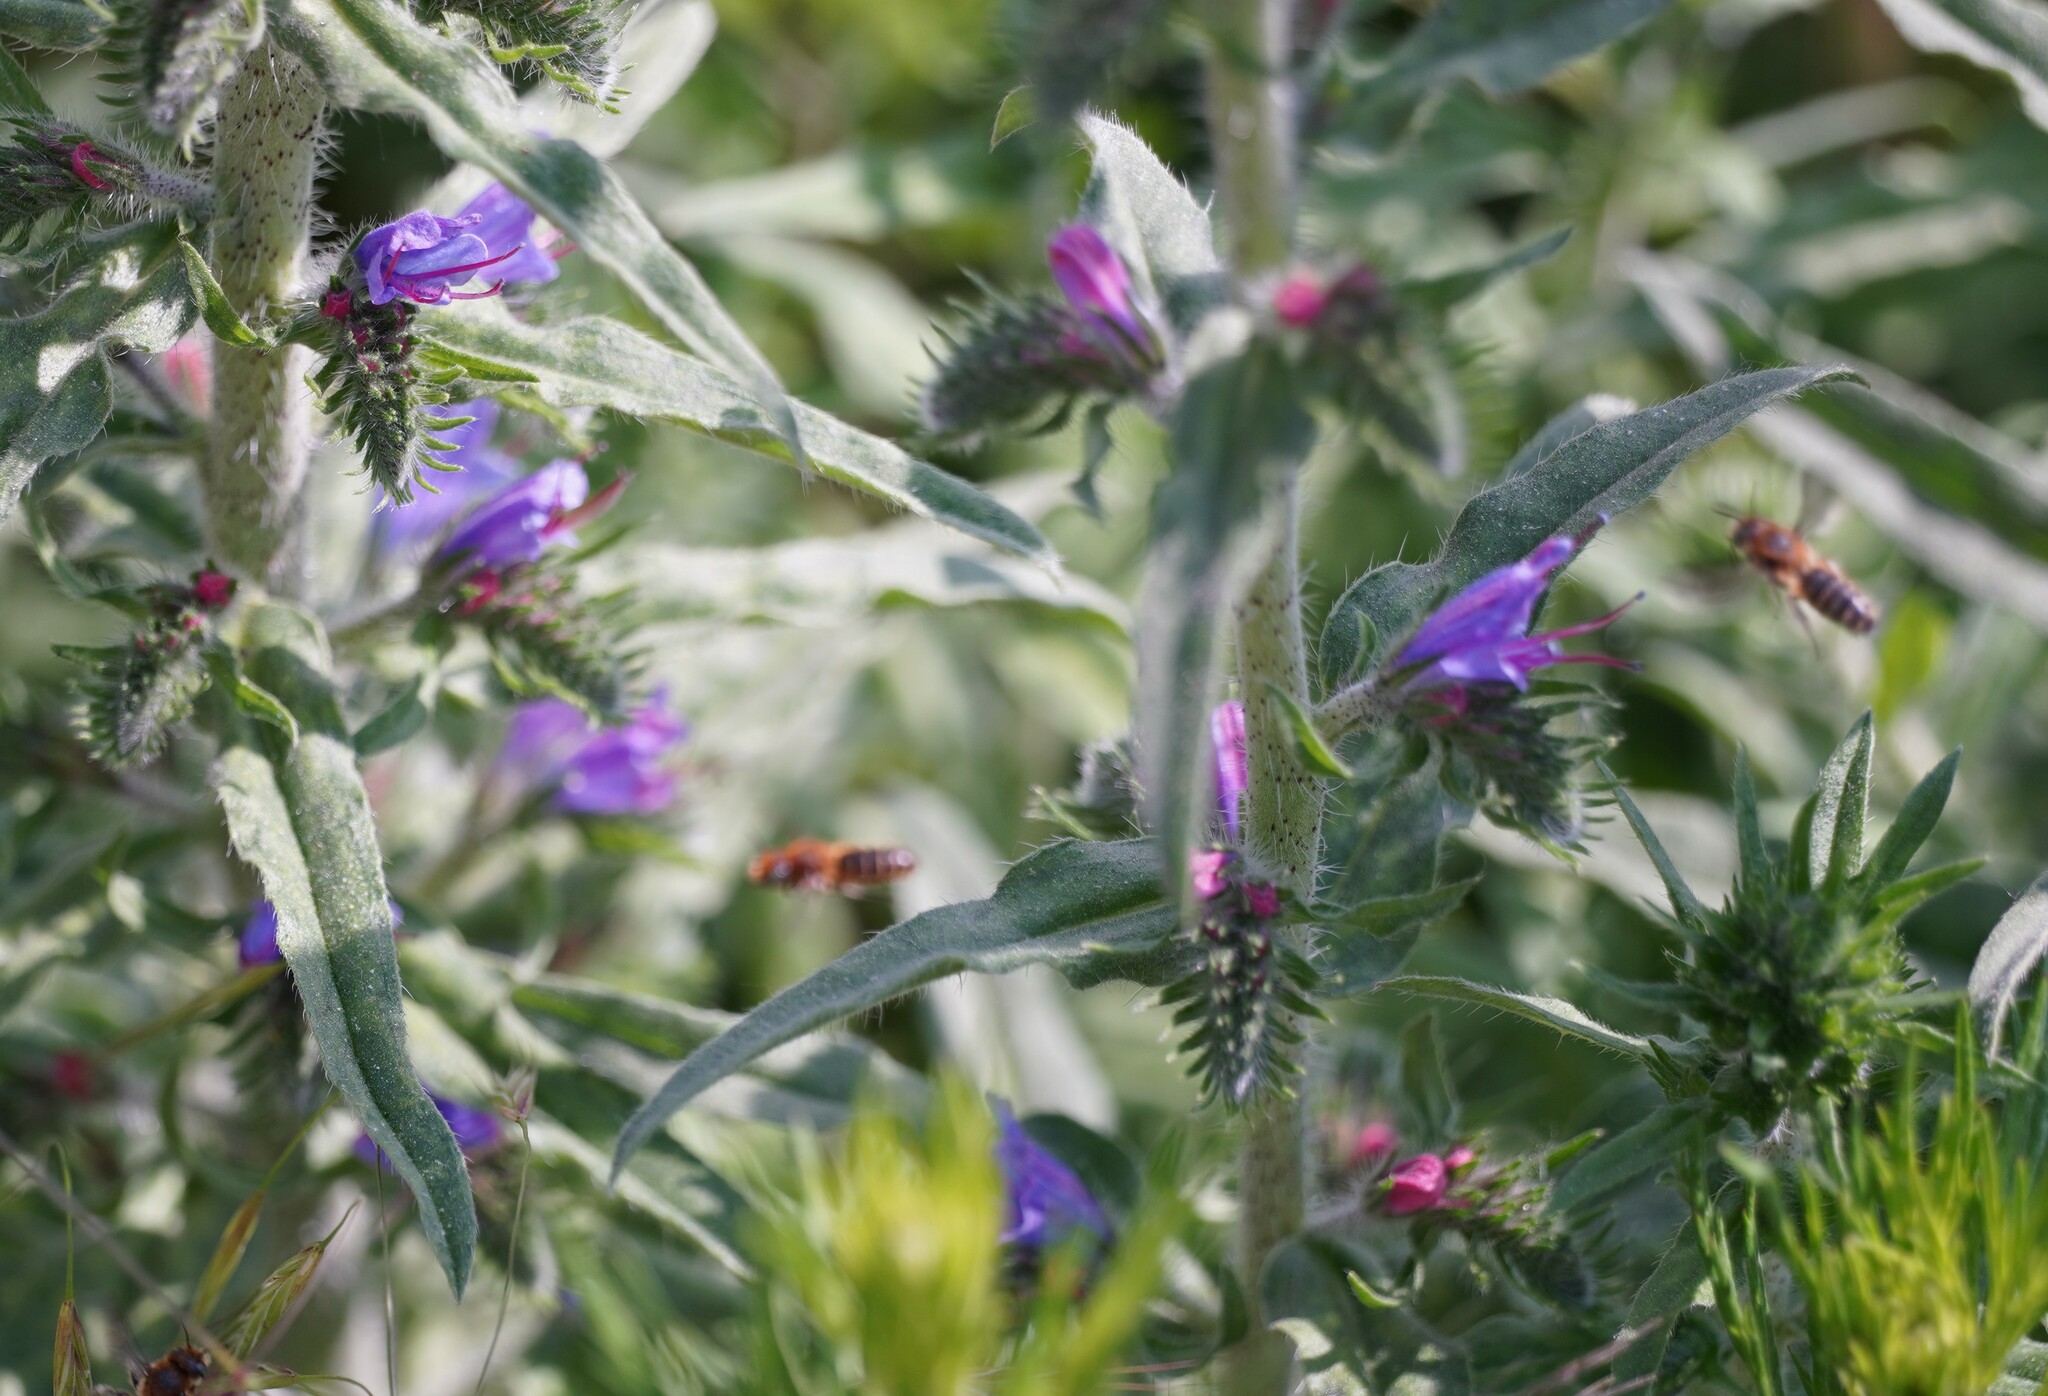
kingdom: Plantae
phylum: Tracheophyta
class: Magnoliopsida
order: Boraginales
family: Boraginaceae
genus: Echium
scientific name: Echium vulgare
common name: Common viper's bugloss
